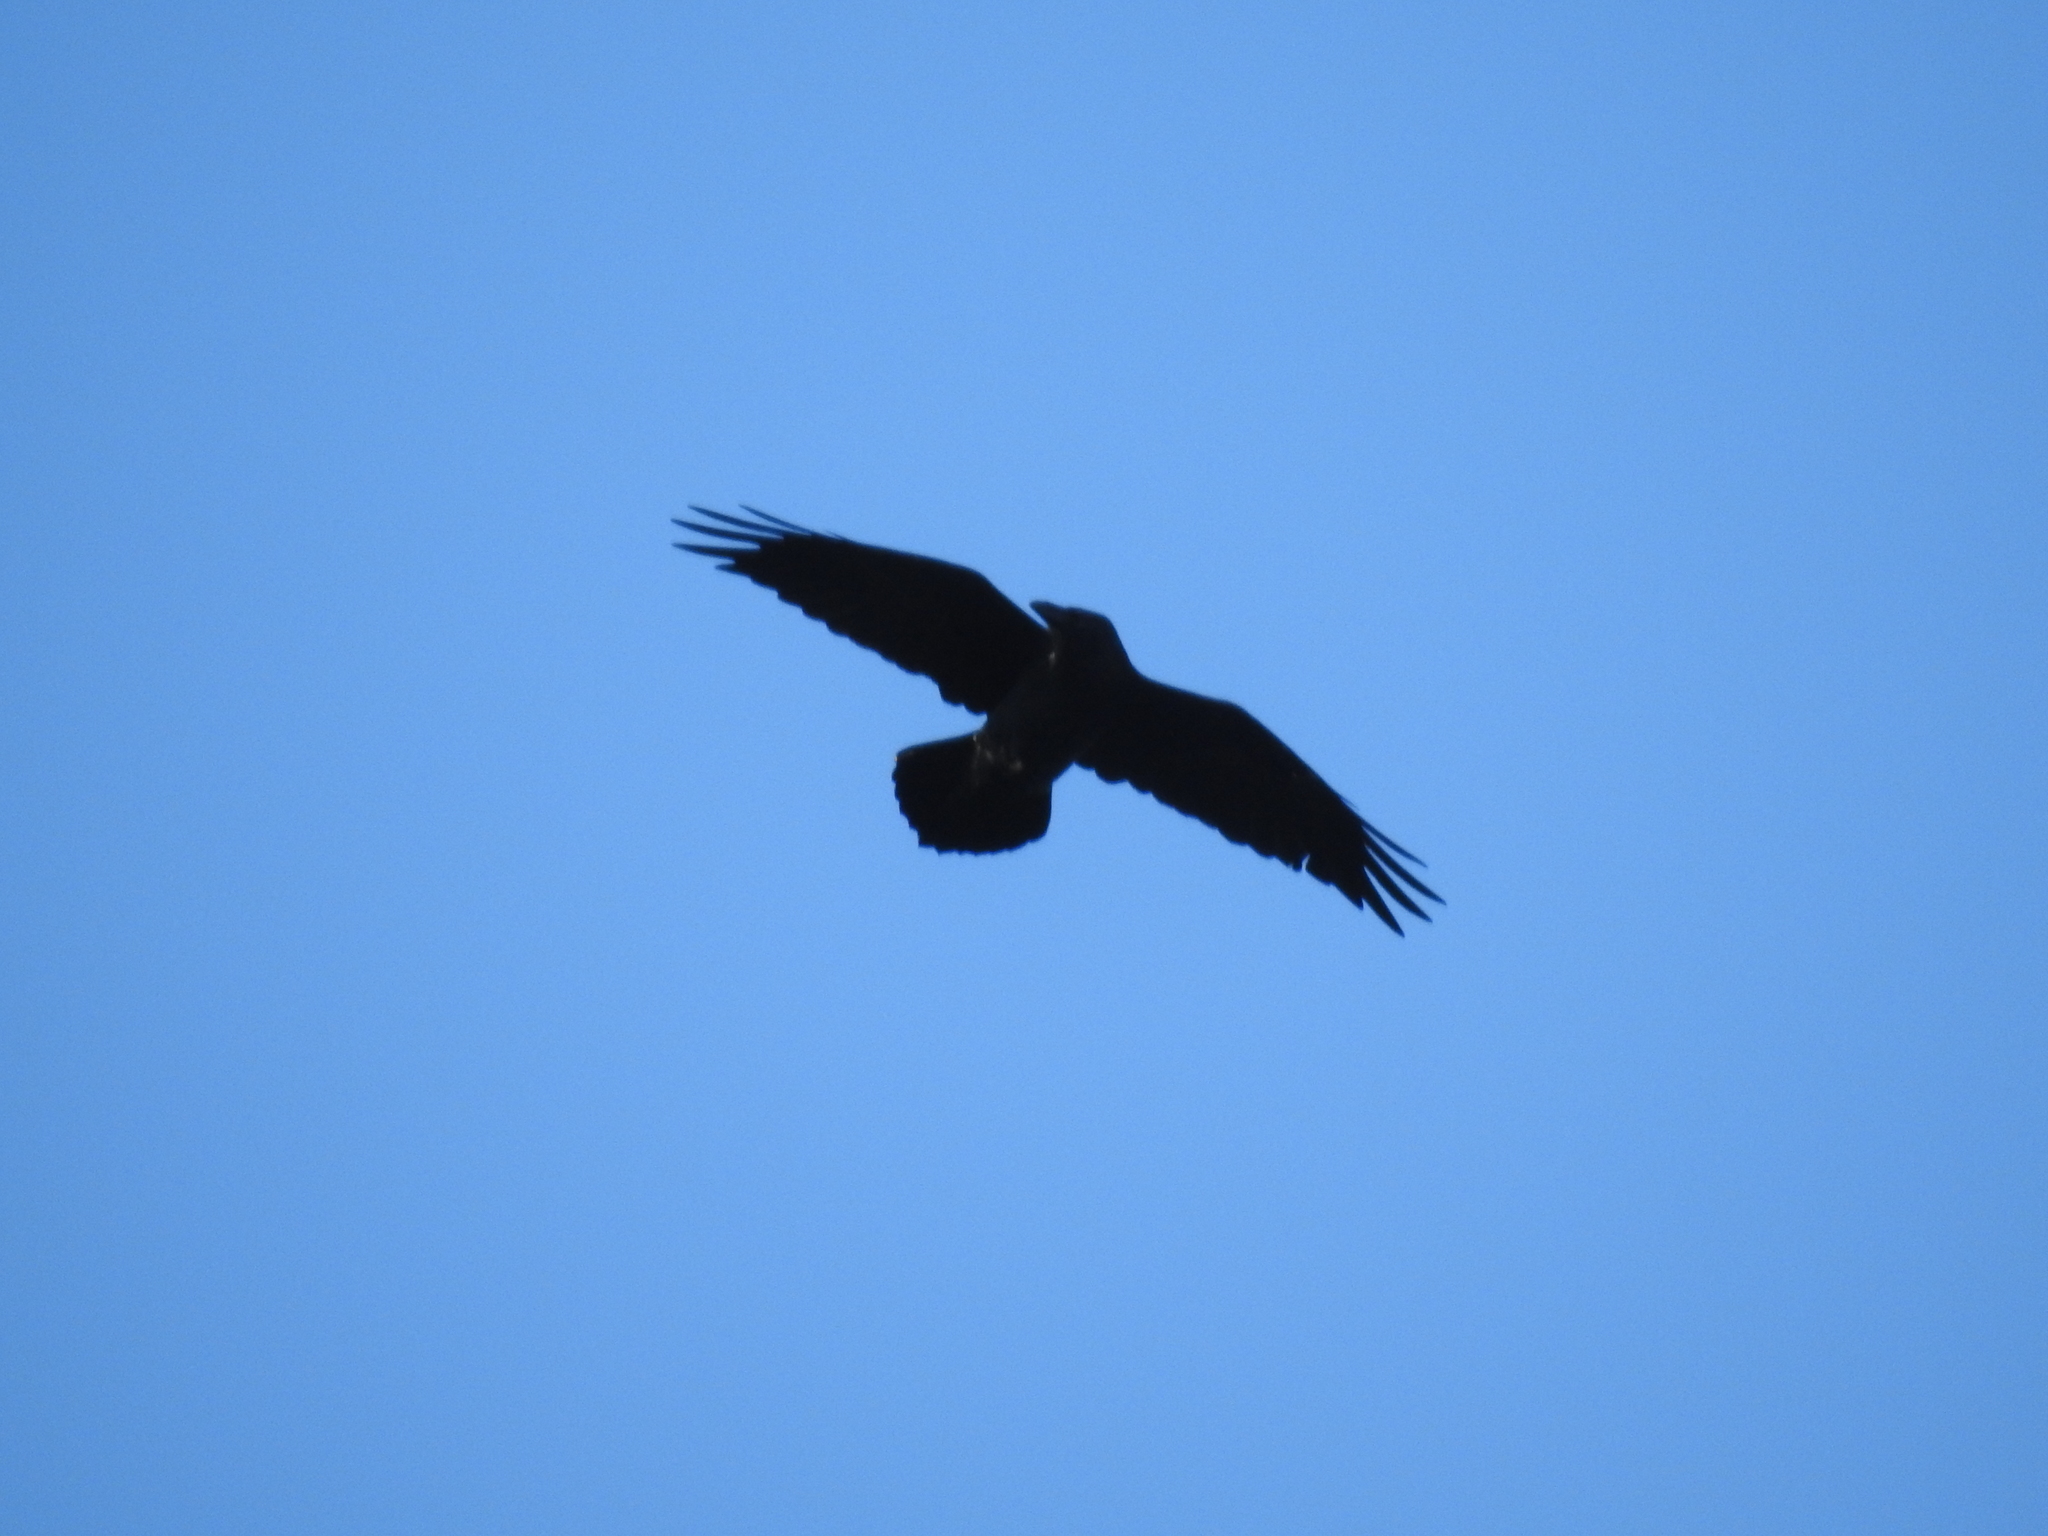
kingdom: Animalia
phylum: Chordata
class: Aves
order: Passeriformes
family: Corvidae
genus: Corvus
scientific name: Corvus corax
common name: Common raven
